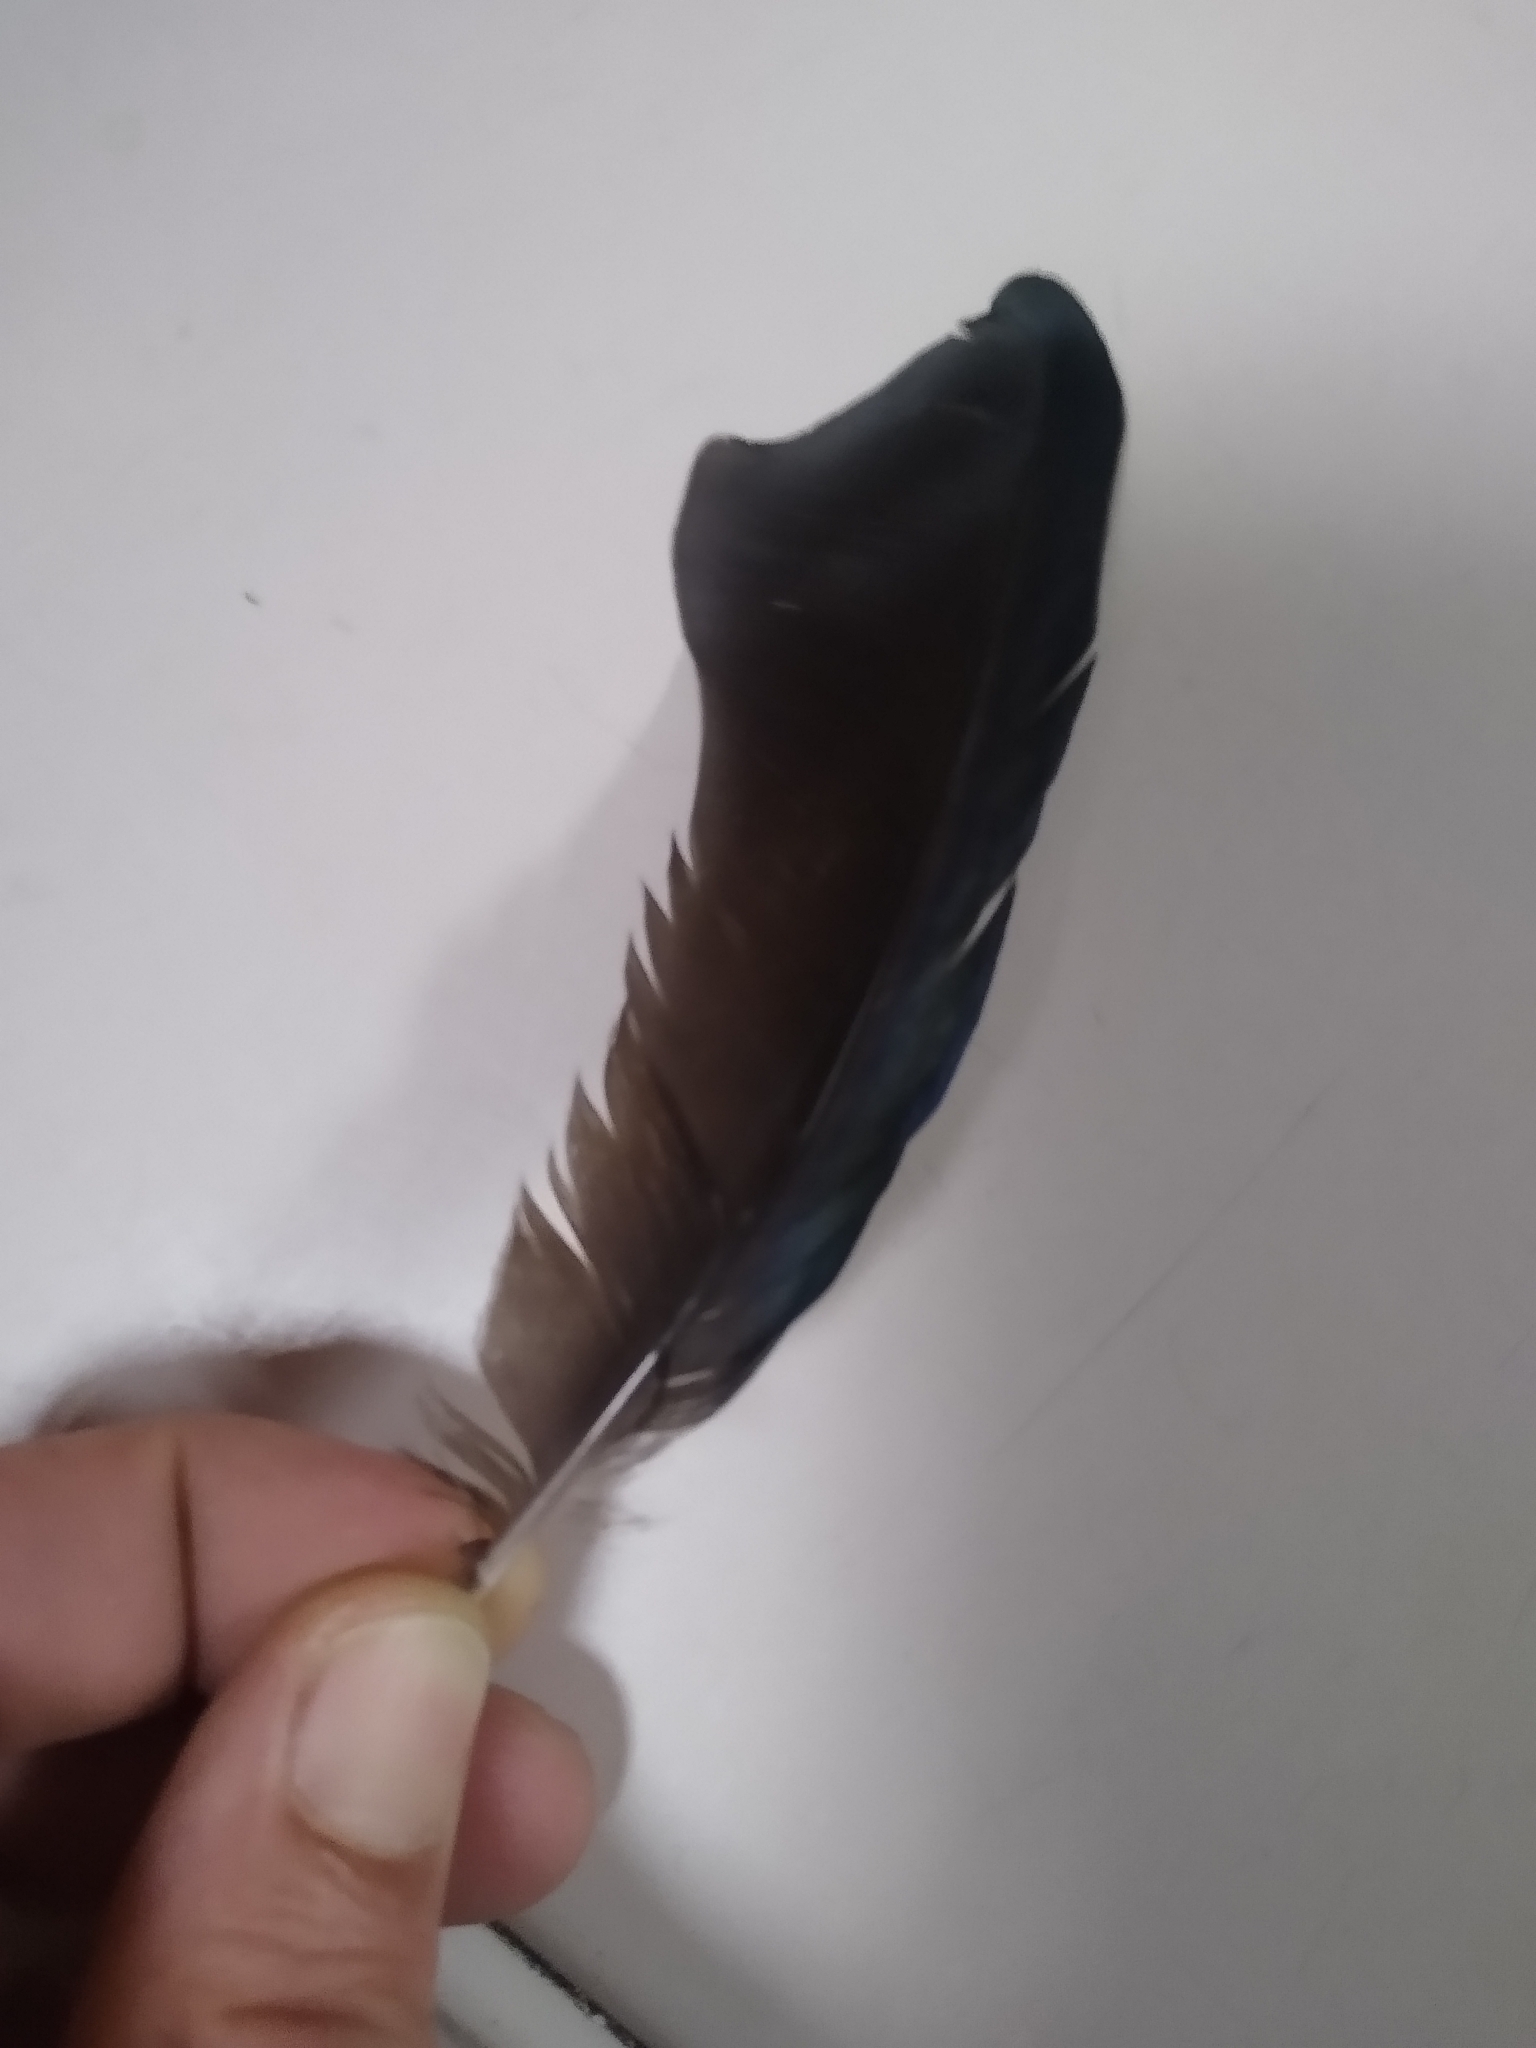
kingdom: Animalia
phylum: Chordata
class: Aves
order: Passeriformes
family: Corvidae
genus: Pica
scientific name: Pica pica
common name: Eurasian magpie
